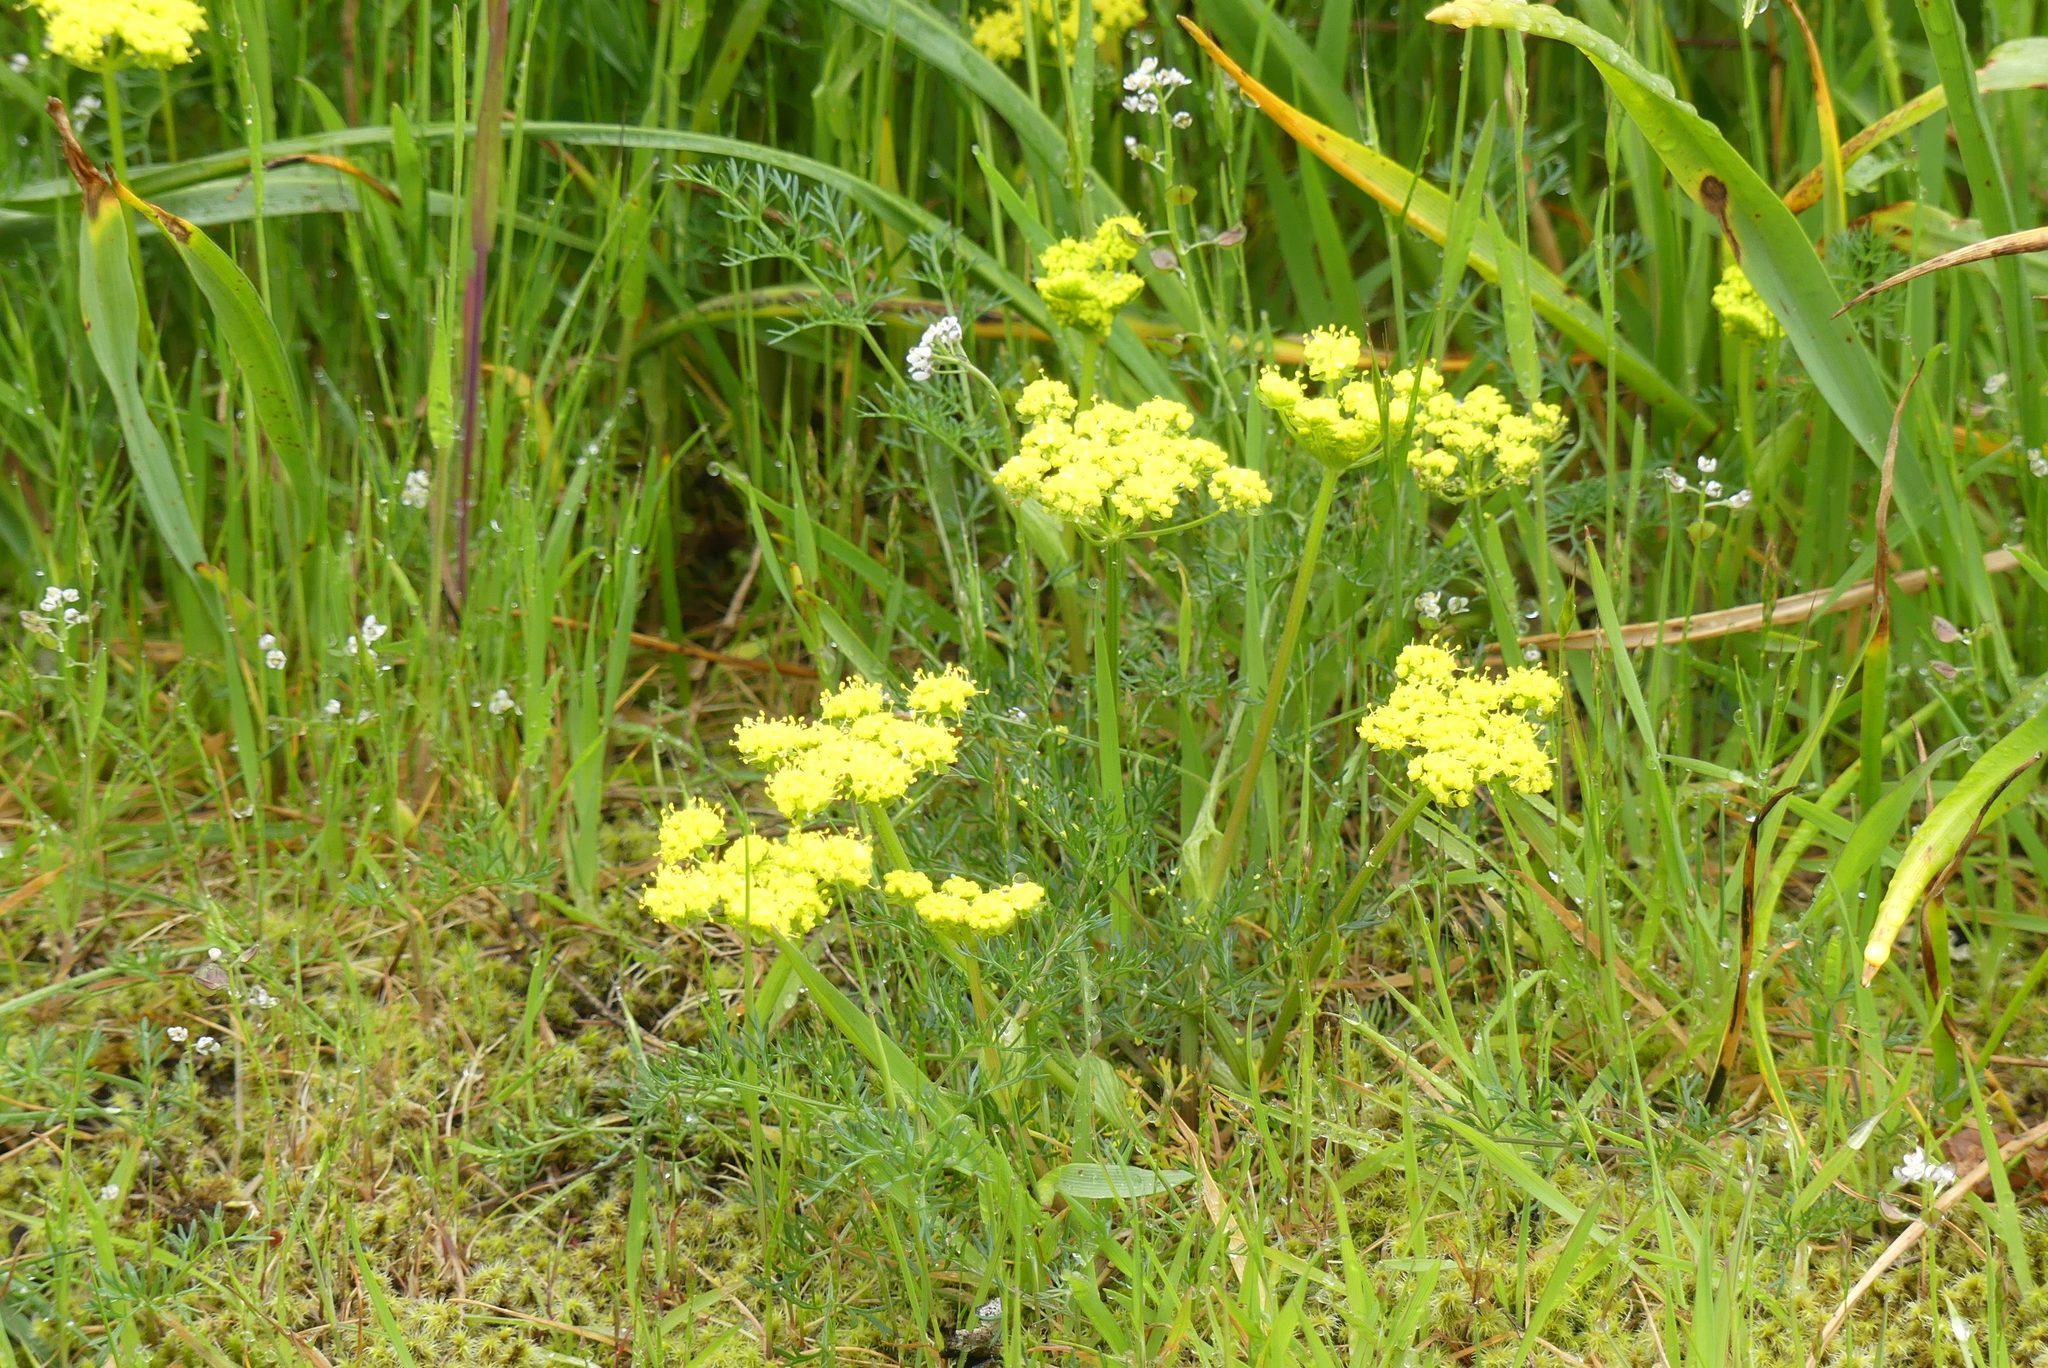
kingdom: Plantae
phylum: Tracheophyta
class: Magnoliopsida
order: Apiales
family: Apiaceae
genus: Lomatium
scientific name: Lomatium utriculatum
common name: Fine-leaf desert-parsley
